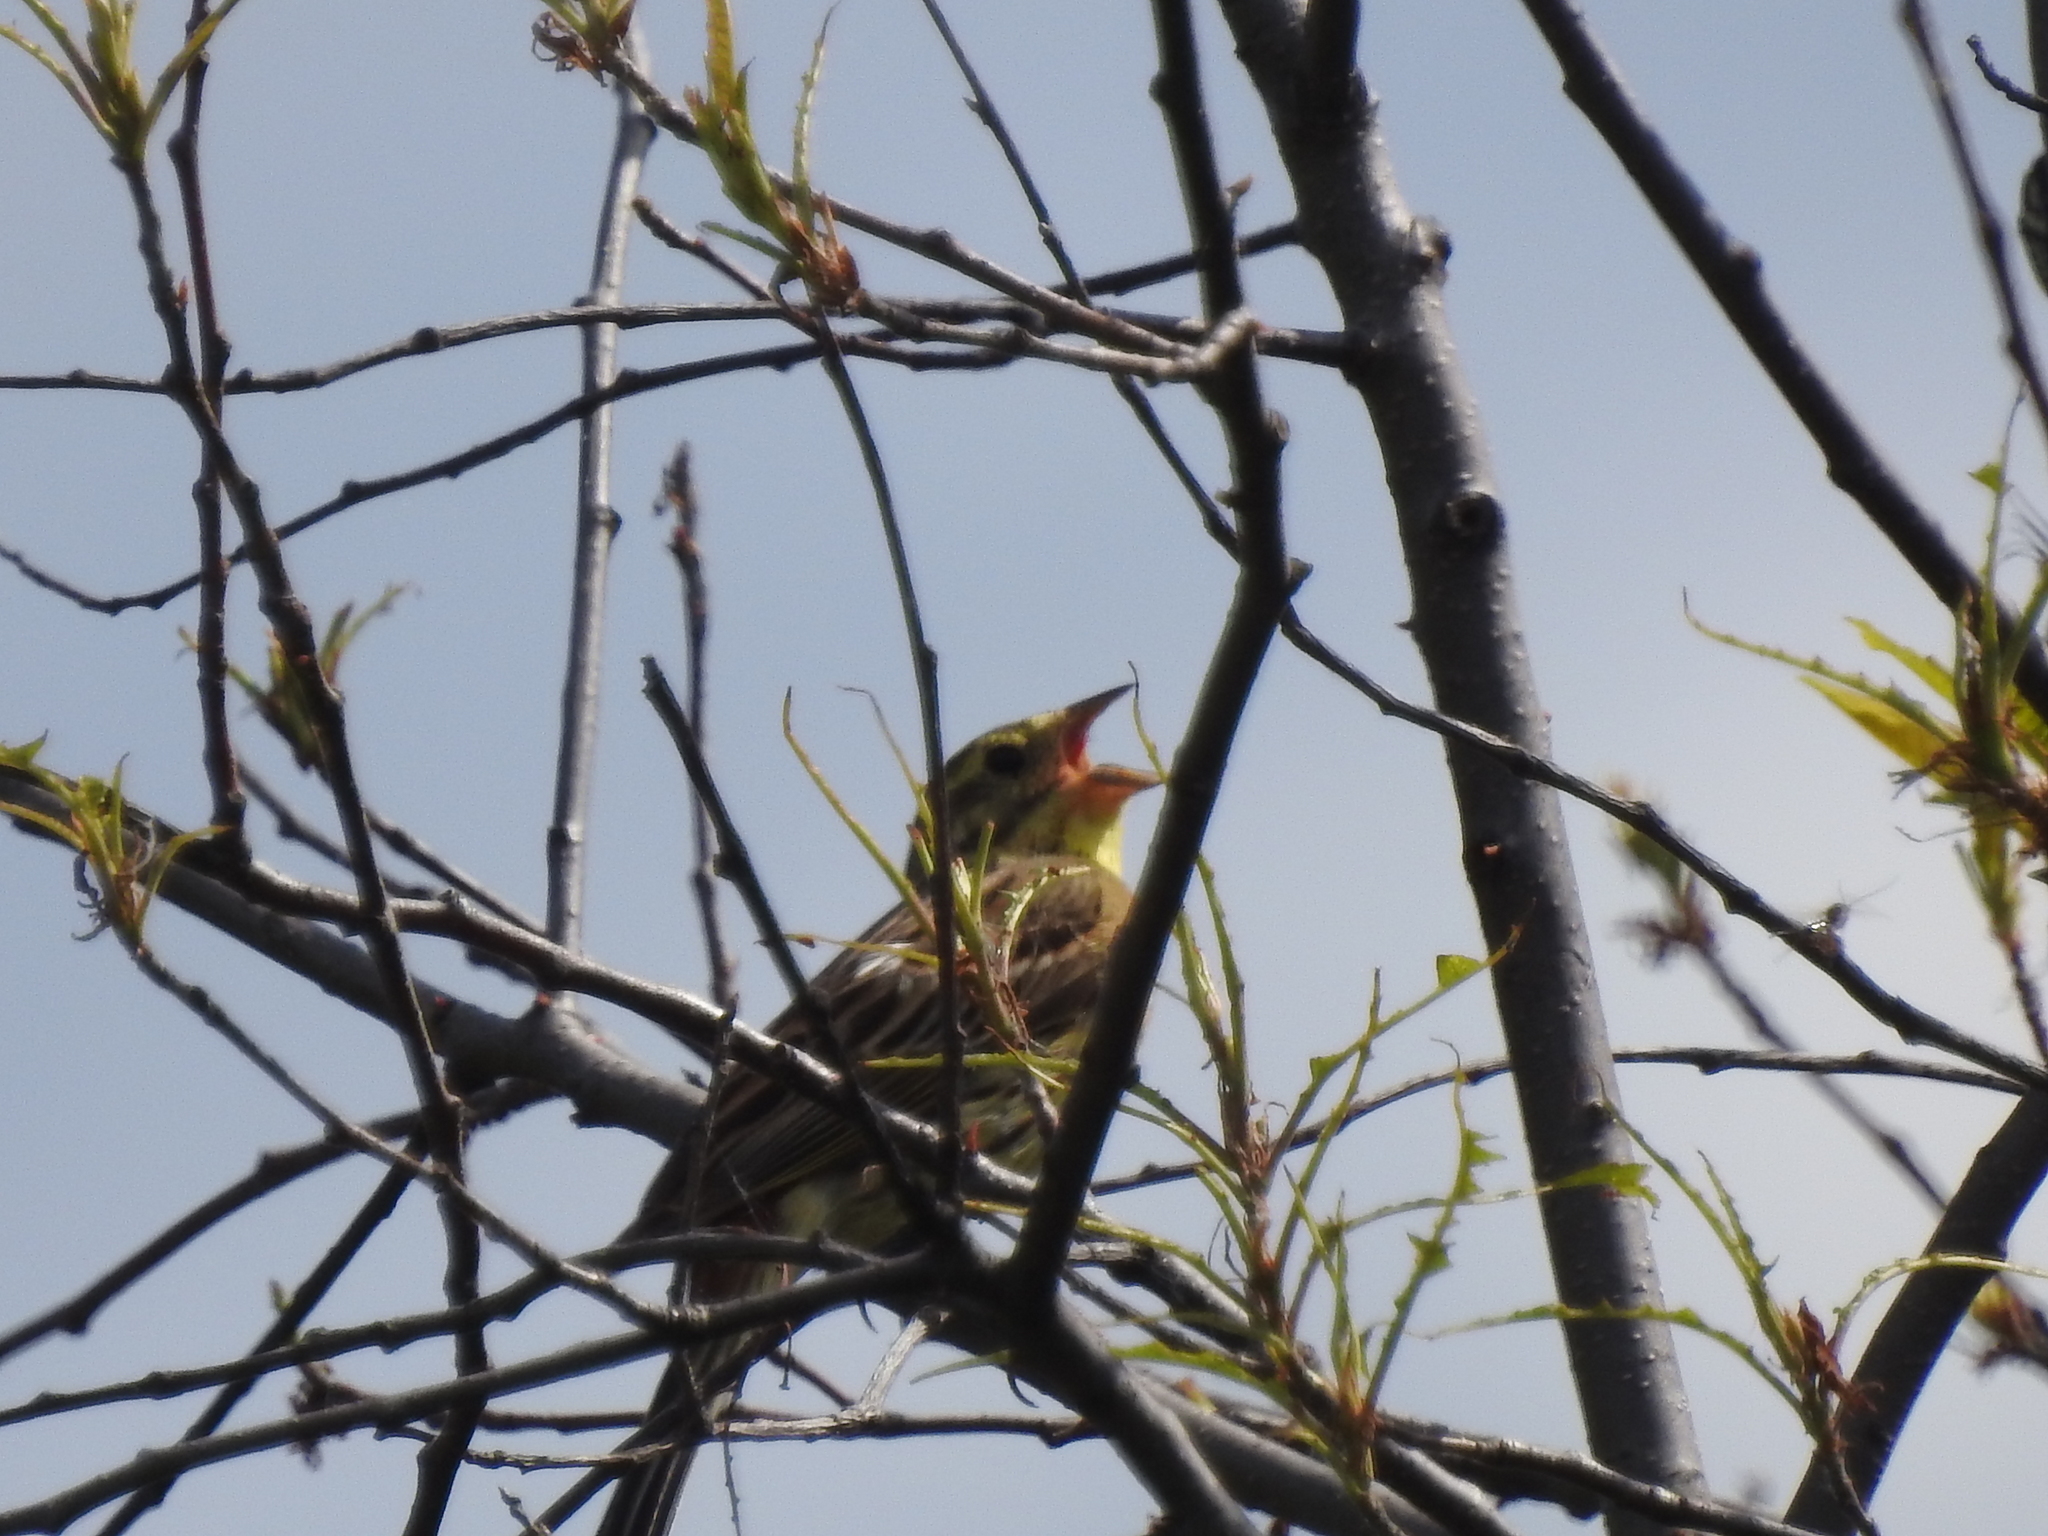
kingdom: Animalia
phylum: Chordata
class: Aves
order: Passeriformes
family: Emberizidae
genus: Emberiza
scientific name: Emberiza citrinella
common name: Yellowhammer
